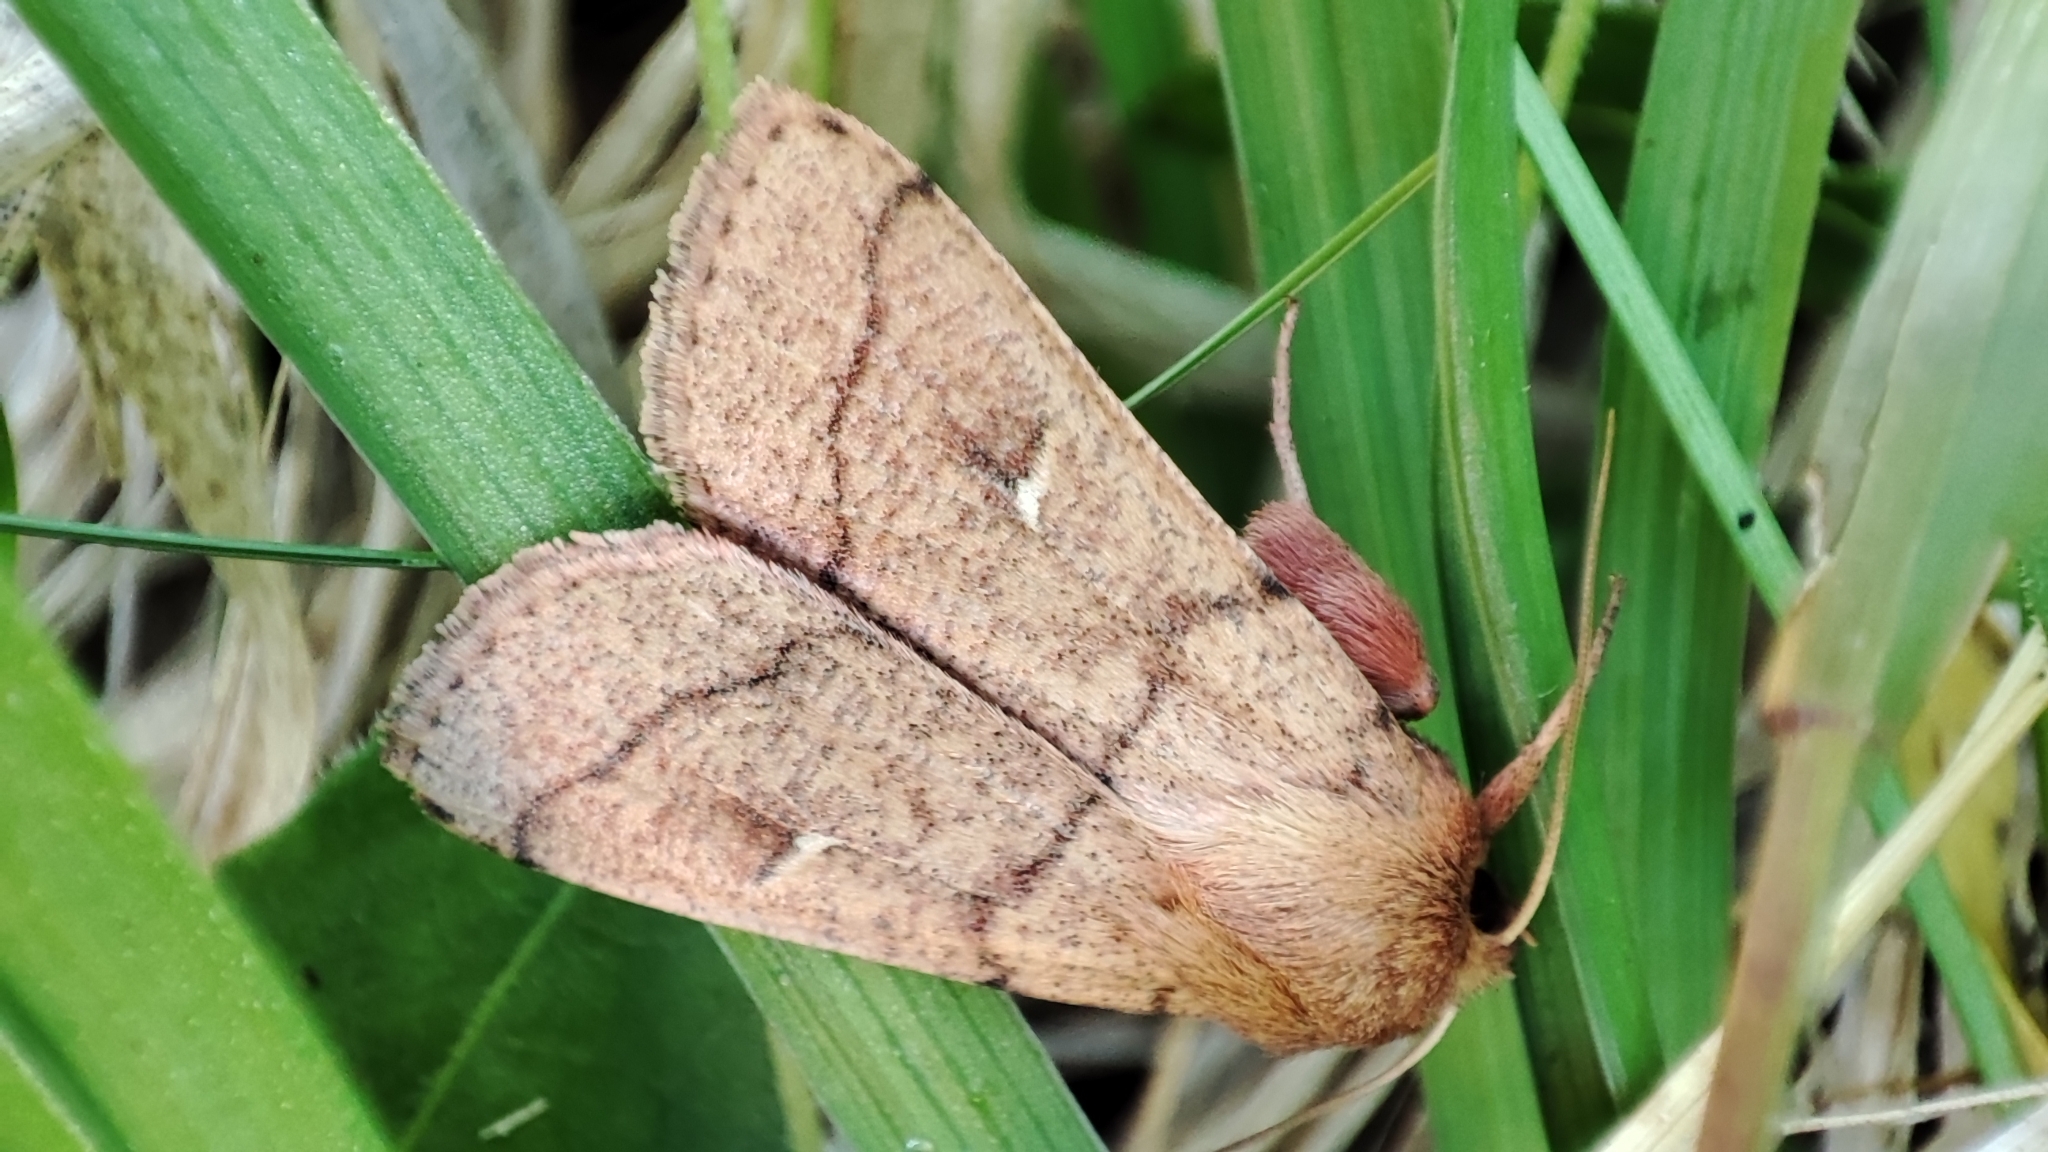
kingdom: Animalia
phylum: Arthropoda
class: Insecta
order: Lepidoptera
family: Noctuidae
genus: Mythimna
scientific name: Mythimna turca
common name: Double line
